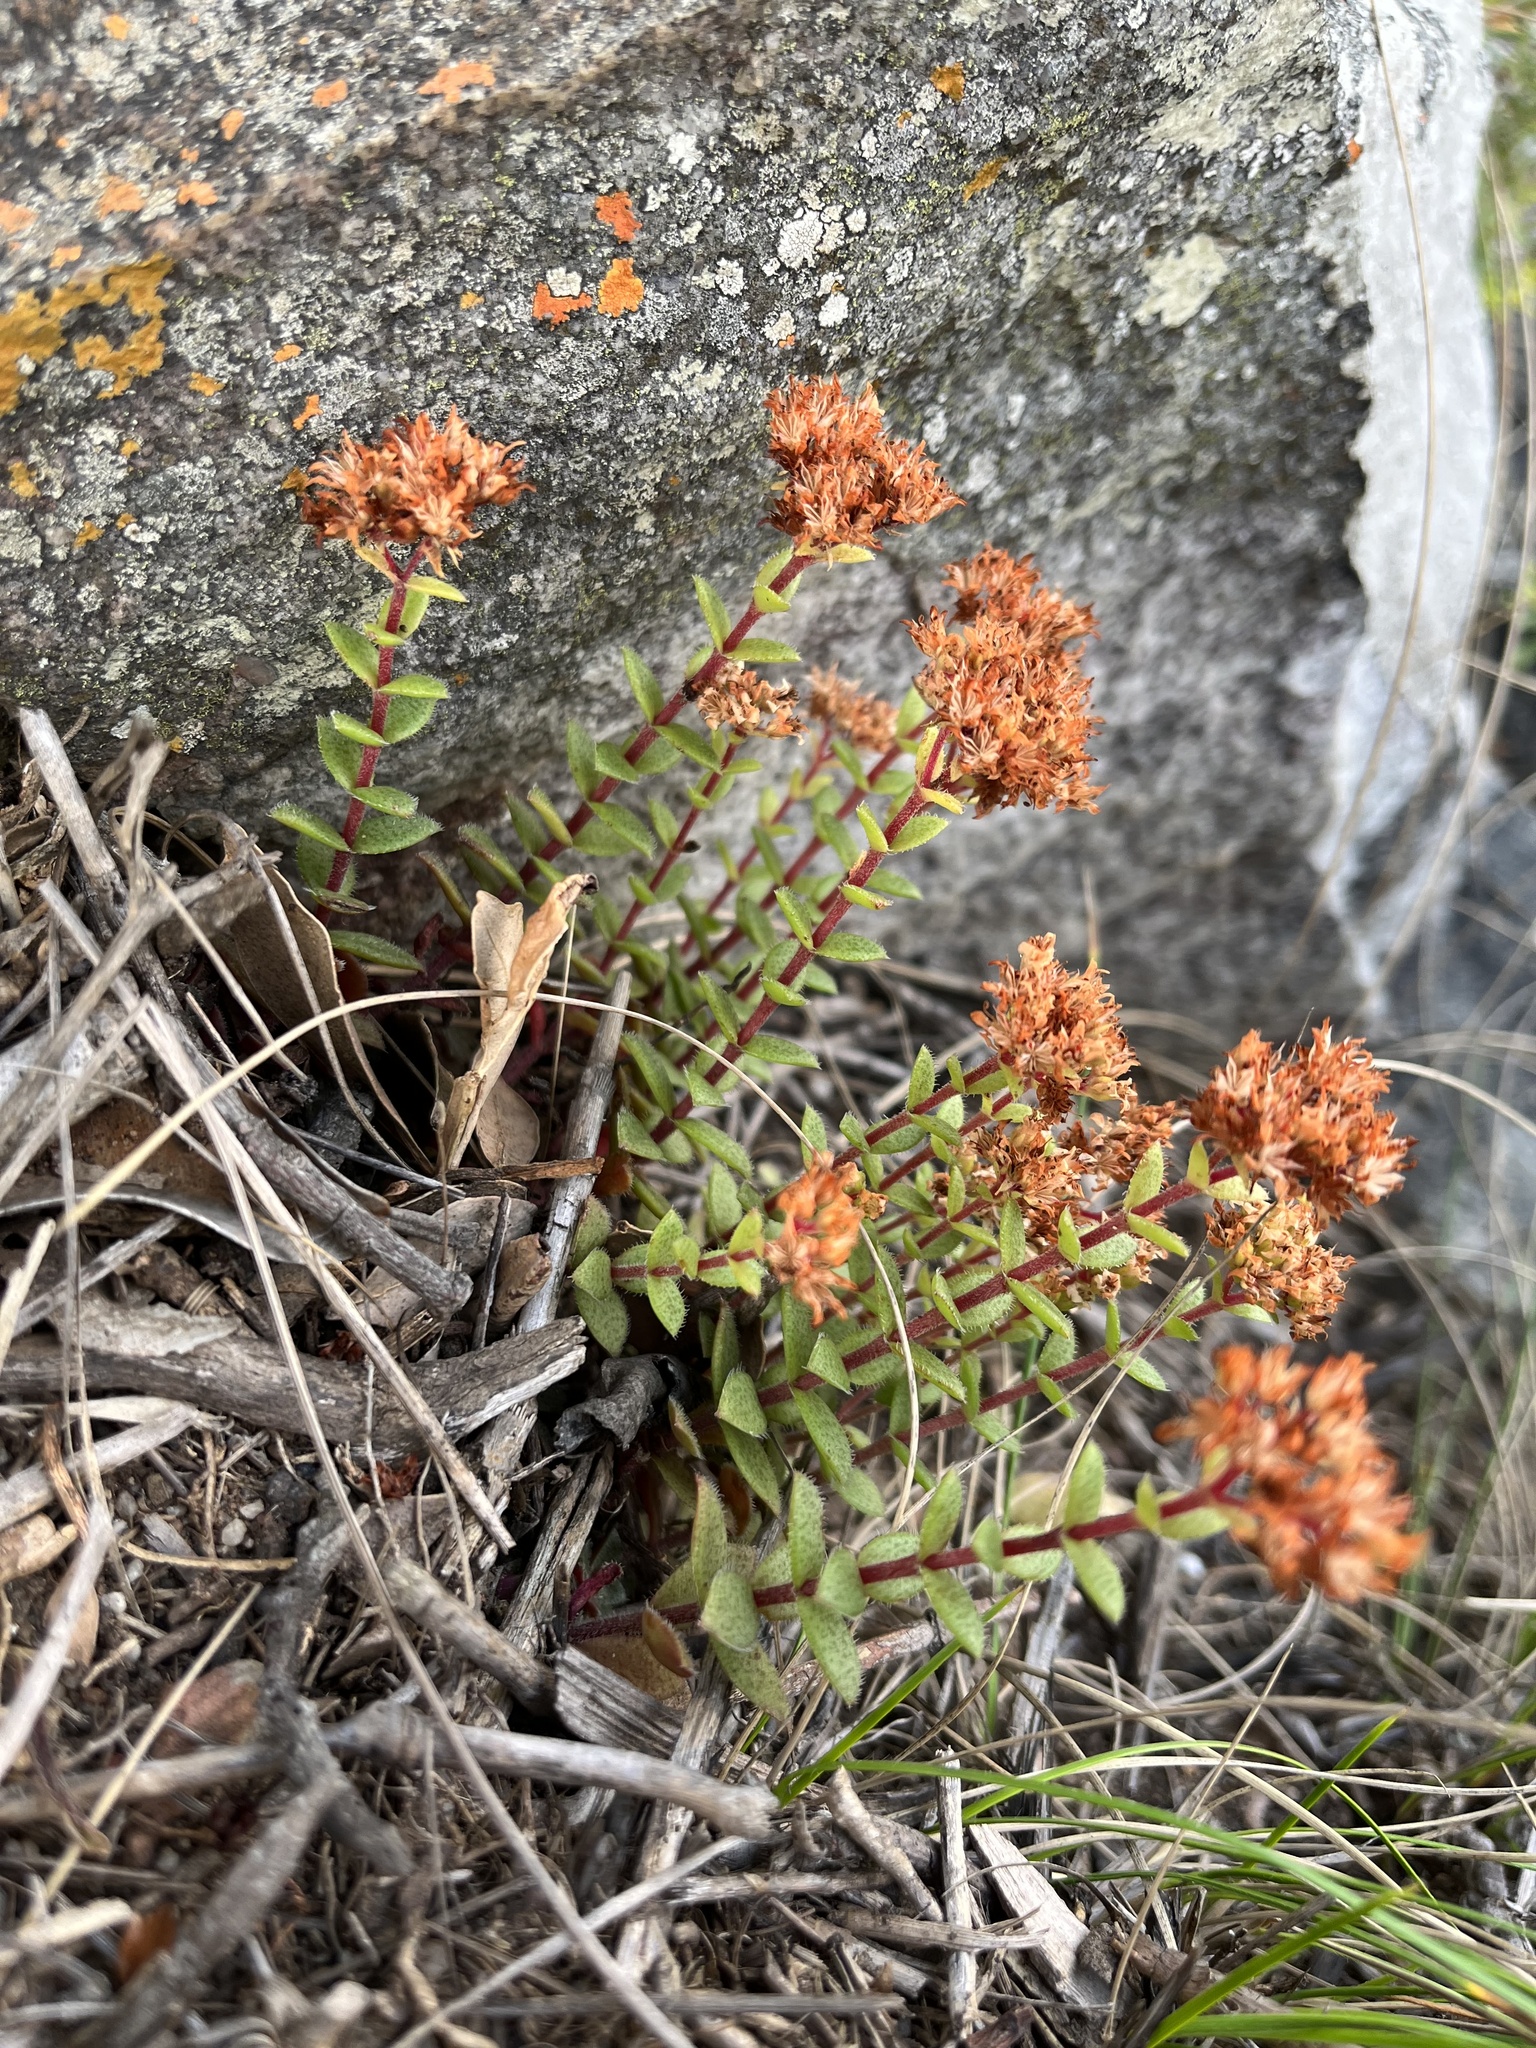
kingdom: Plantae
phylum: Tracheophyta
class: Magnoliopsida
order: Saxifragales
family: Crassulaceae
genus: Crassula
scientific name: Crassula setulosa
